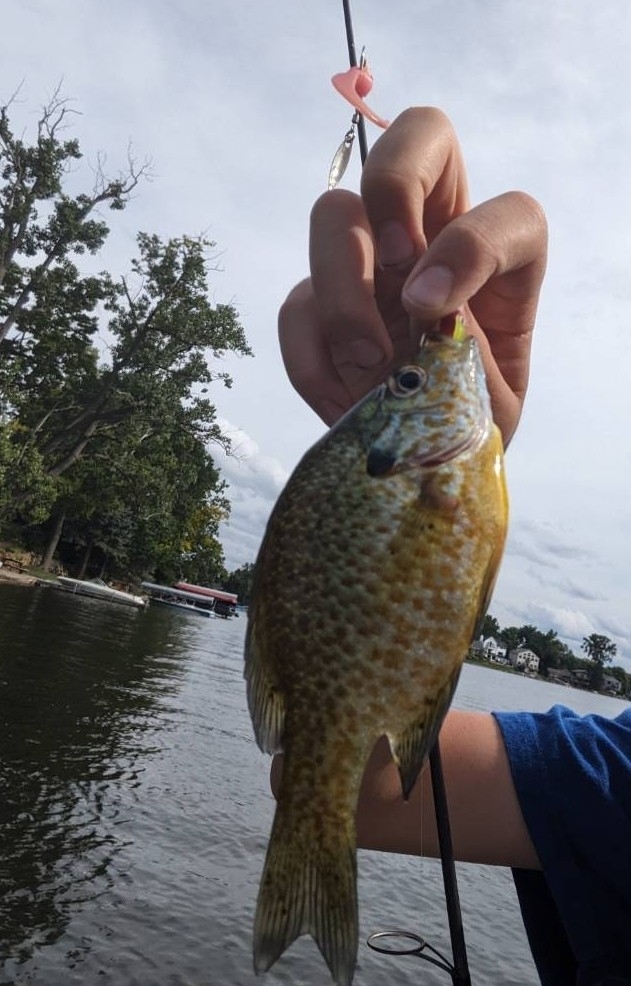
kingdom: Animalia
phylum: Chordata
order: Perciformes
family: Centrarchidae
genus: Lepomis
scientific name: Lepomis
